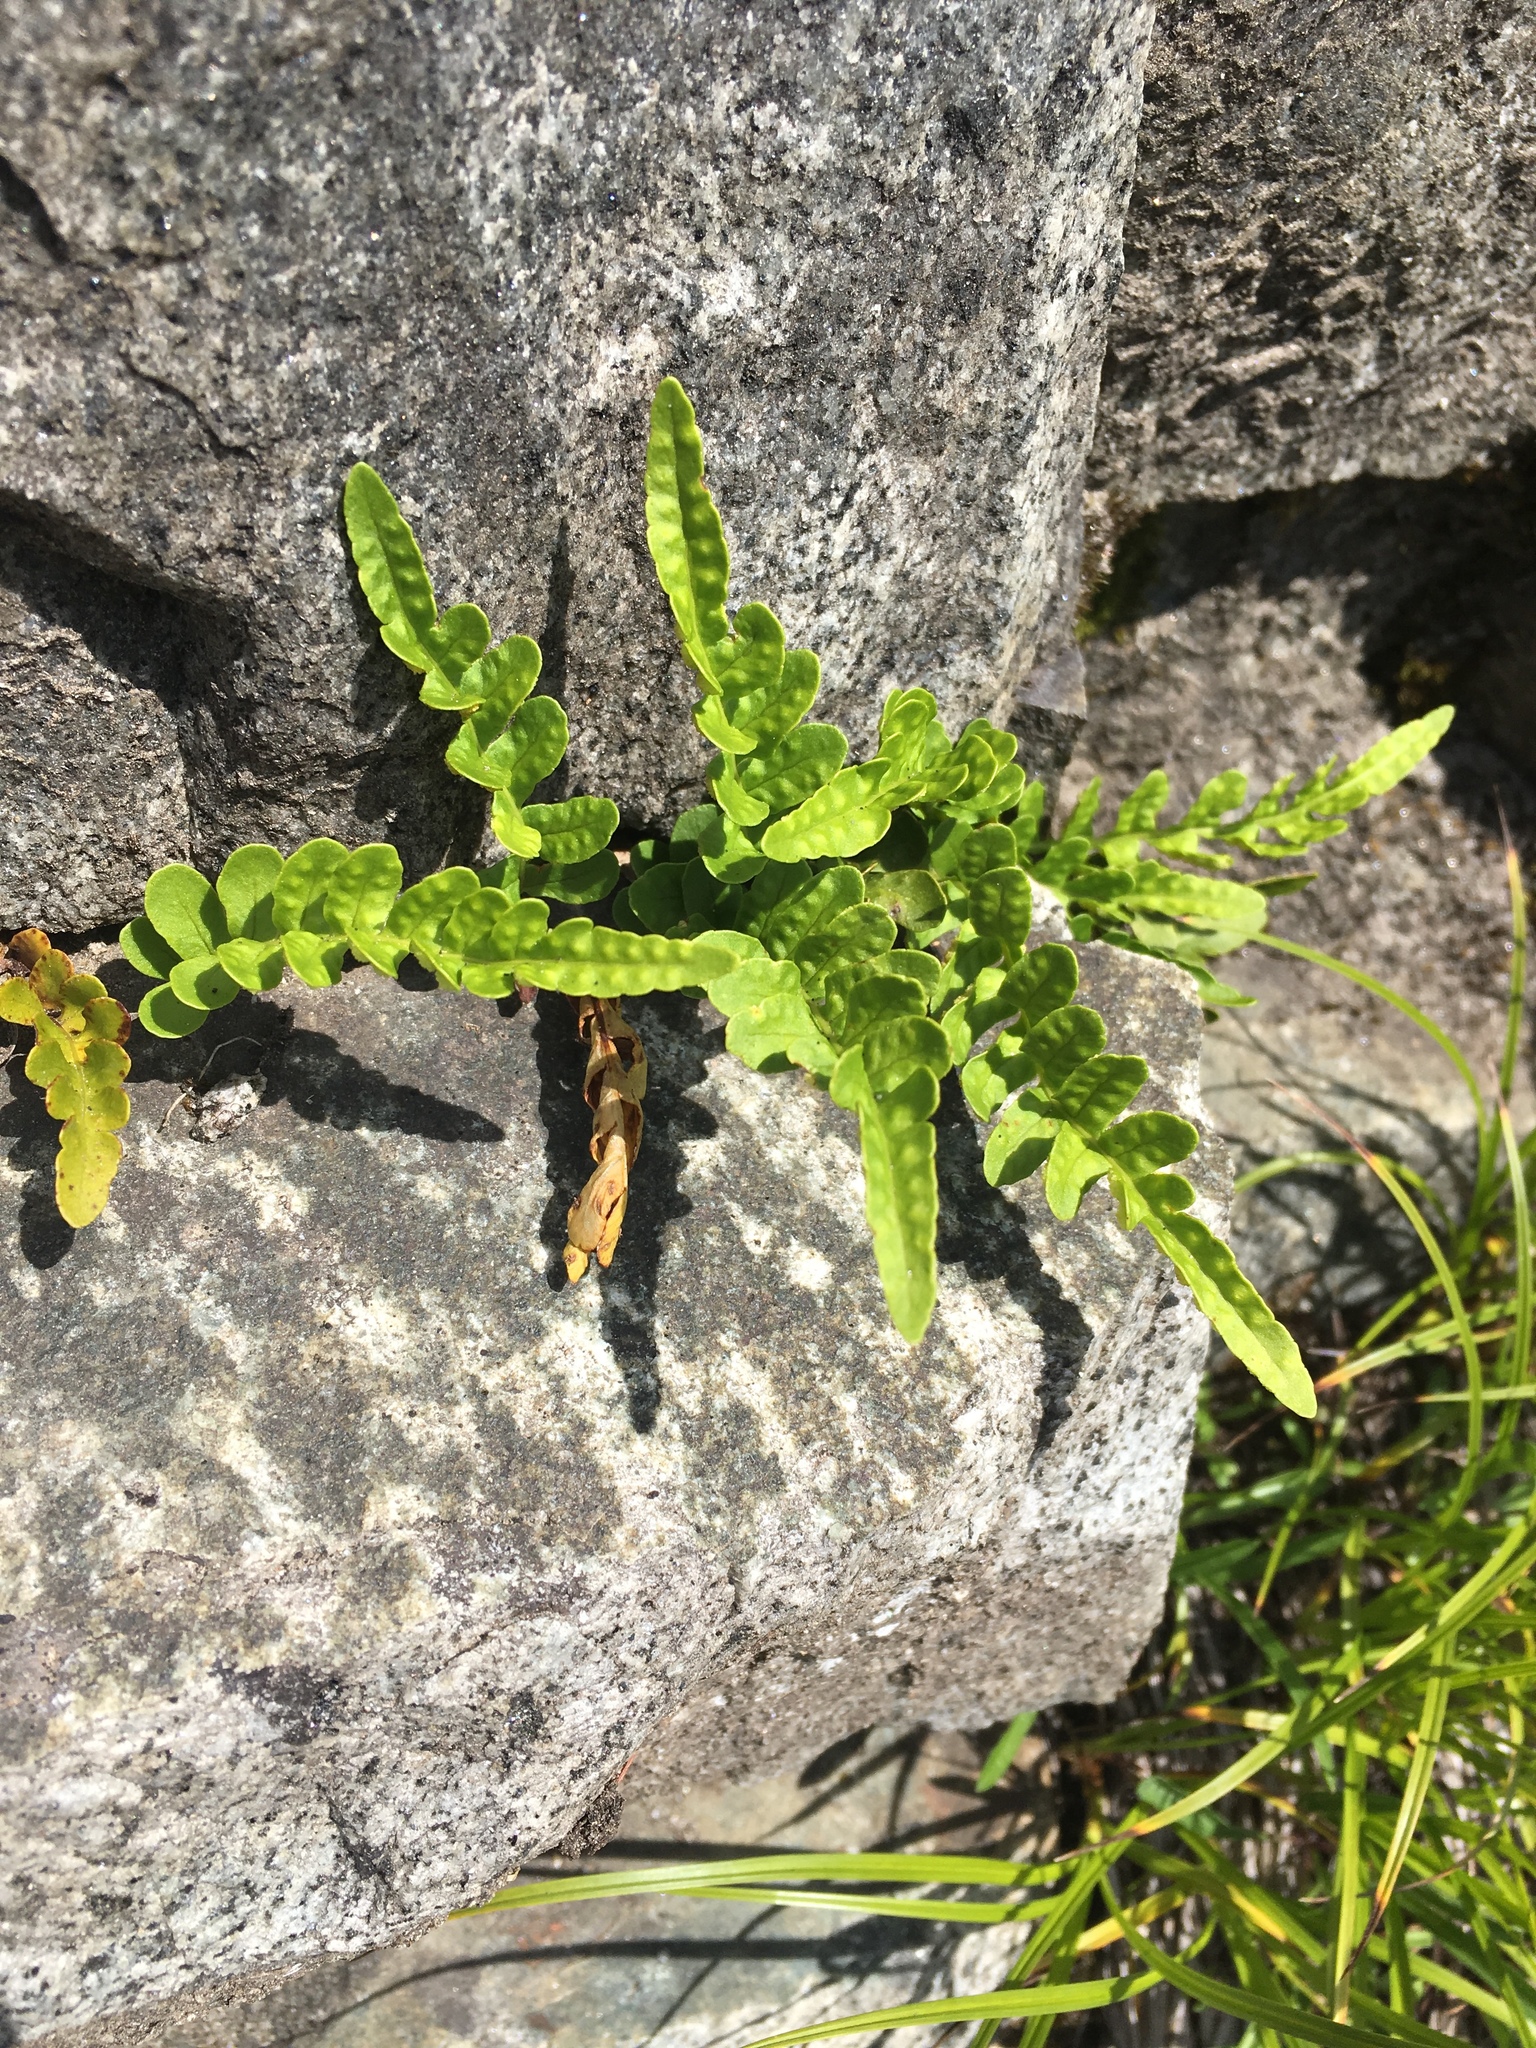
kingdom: Plantae
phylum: Tracheophyta
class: Polypodiopsida
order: Polypodiales
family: Polypodiaceae
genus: Polypodium
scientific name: Polypodium amorphum
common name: Pacific polypody
